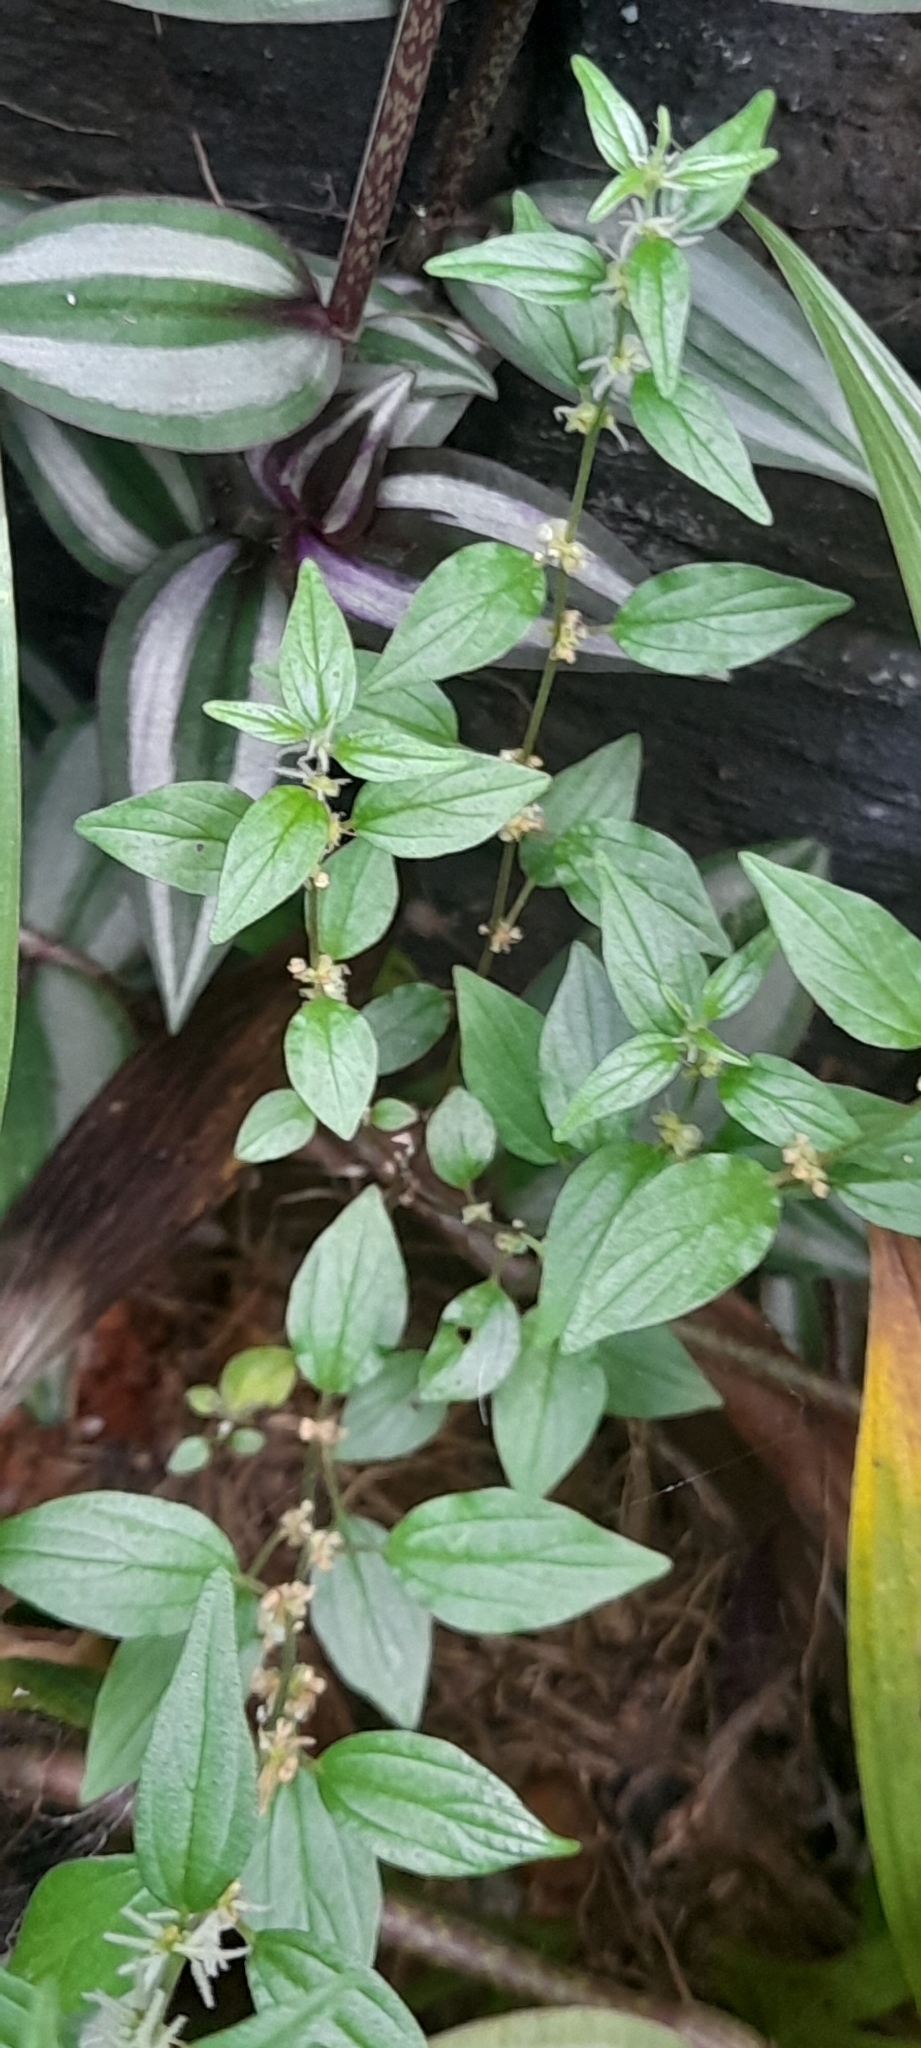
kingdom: Plantae
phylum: Tracheophyta
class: Magnoliopsida
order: Rosales
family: Urticaceae
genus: Pouzolzia
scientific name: Pouzolzia zeylanica
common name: Graceful pouzolzsbush
